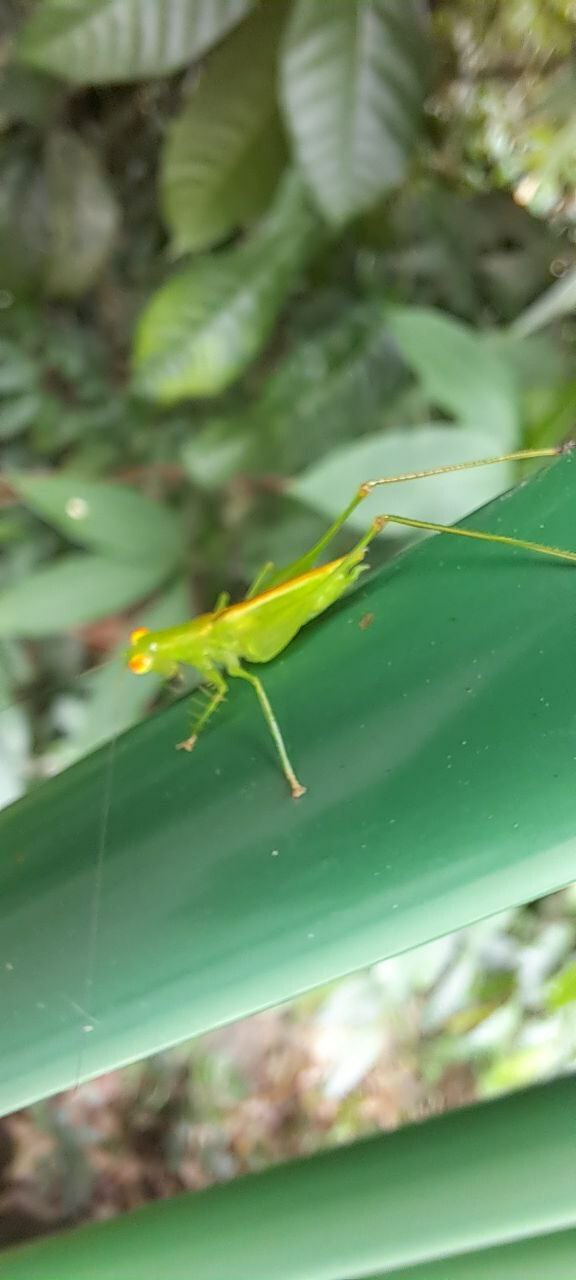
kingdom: Animalia
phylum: Arthropoda
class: Insecta
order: Orthoptera
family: Tettigoniidae
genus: Asiophlugis
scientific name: Asiophlugis thaumasia
